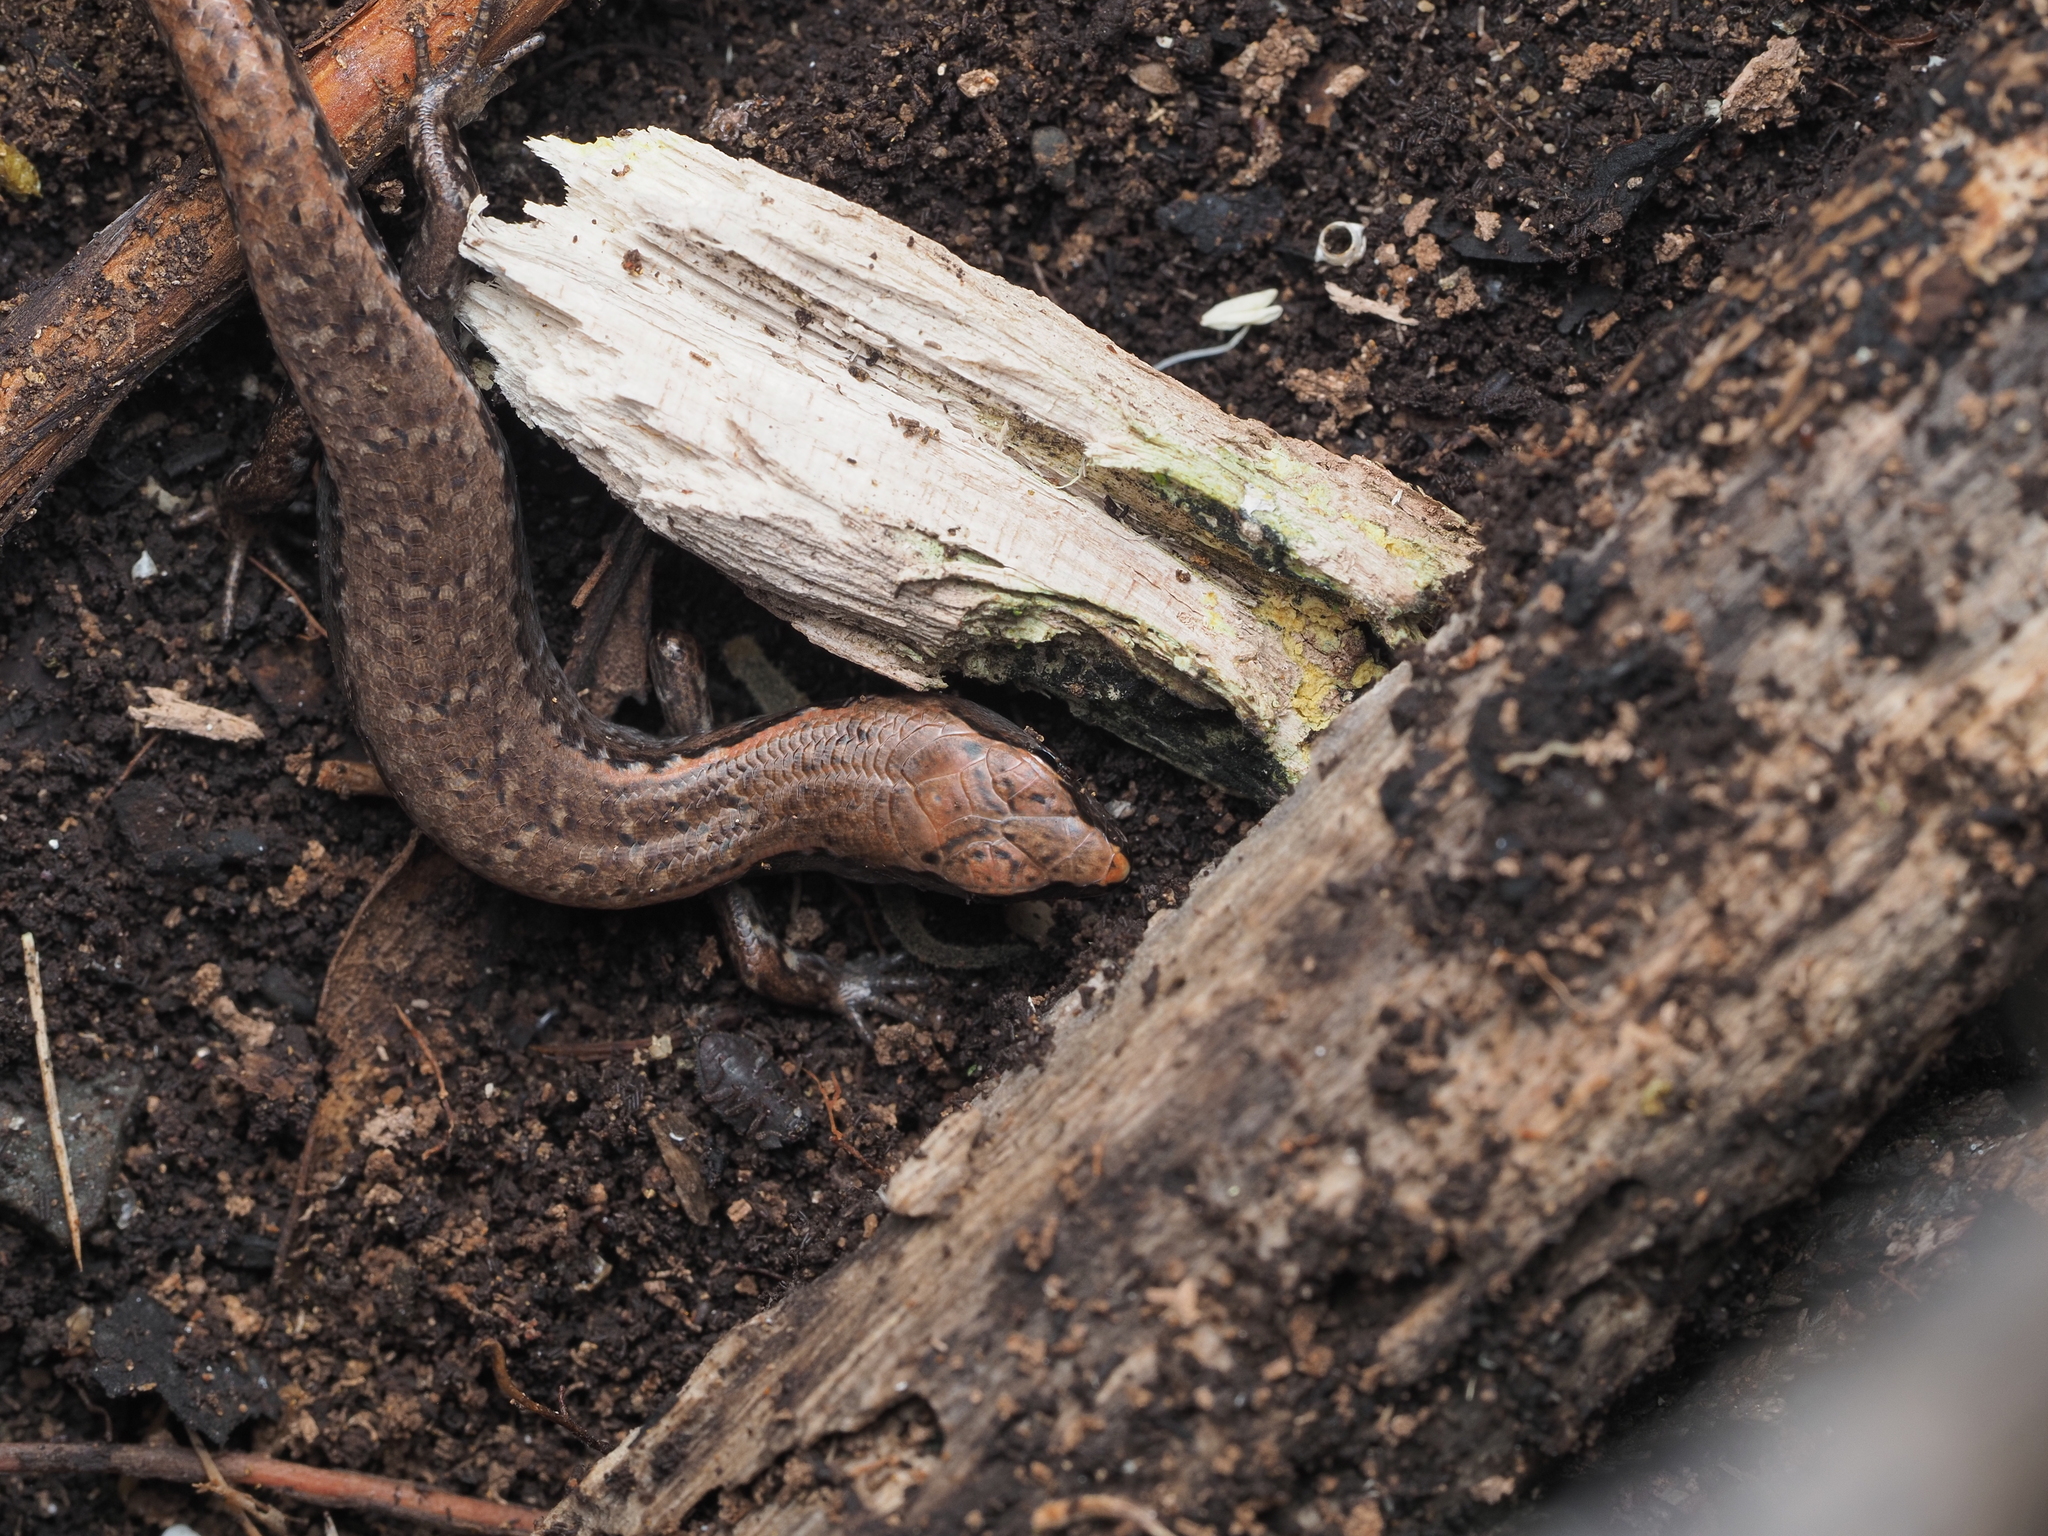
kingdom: Animalia
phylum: Chordata
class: Squamata
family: Scincidae
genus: Oligosoma
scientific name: Oligosoma ornatum
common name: Gray's ornate skink
